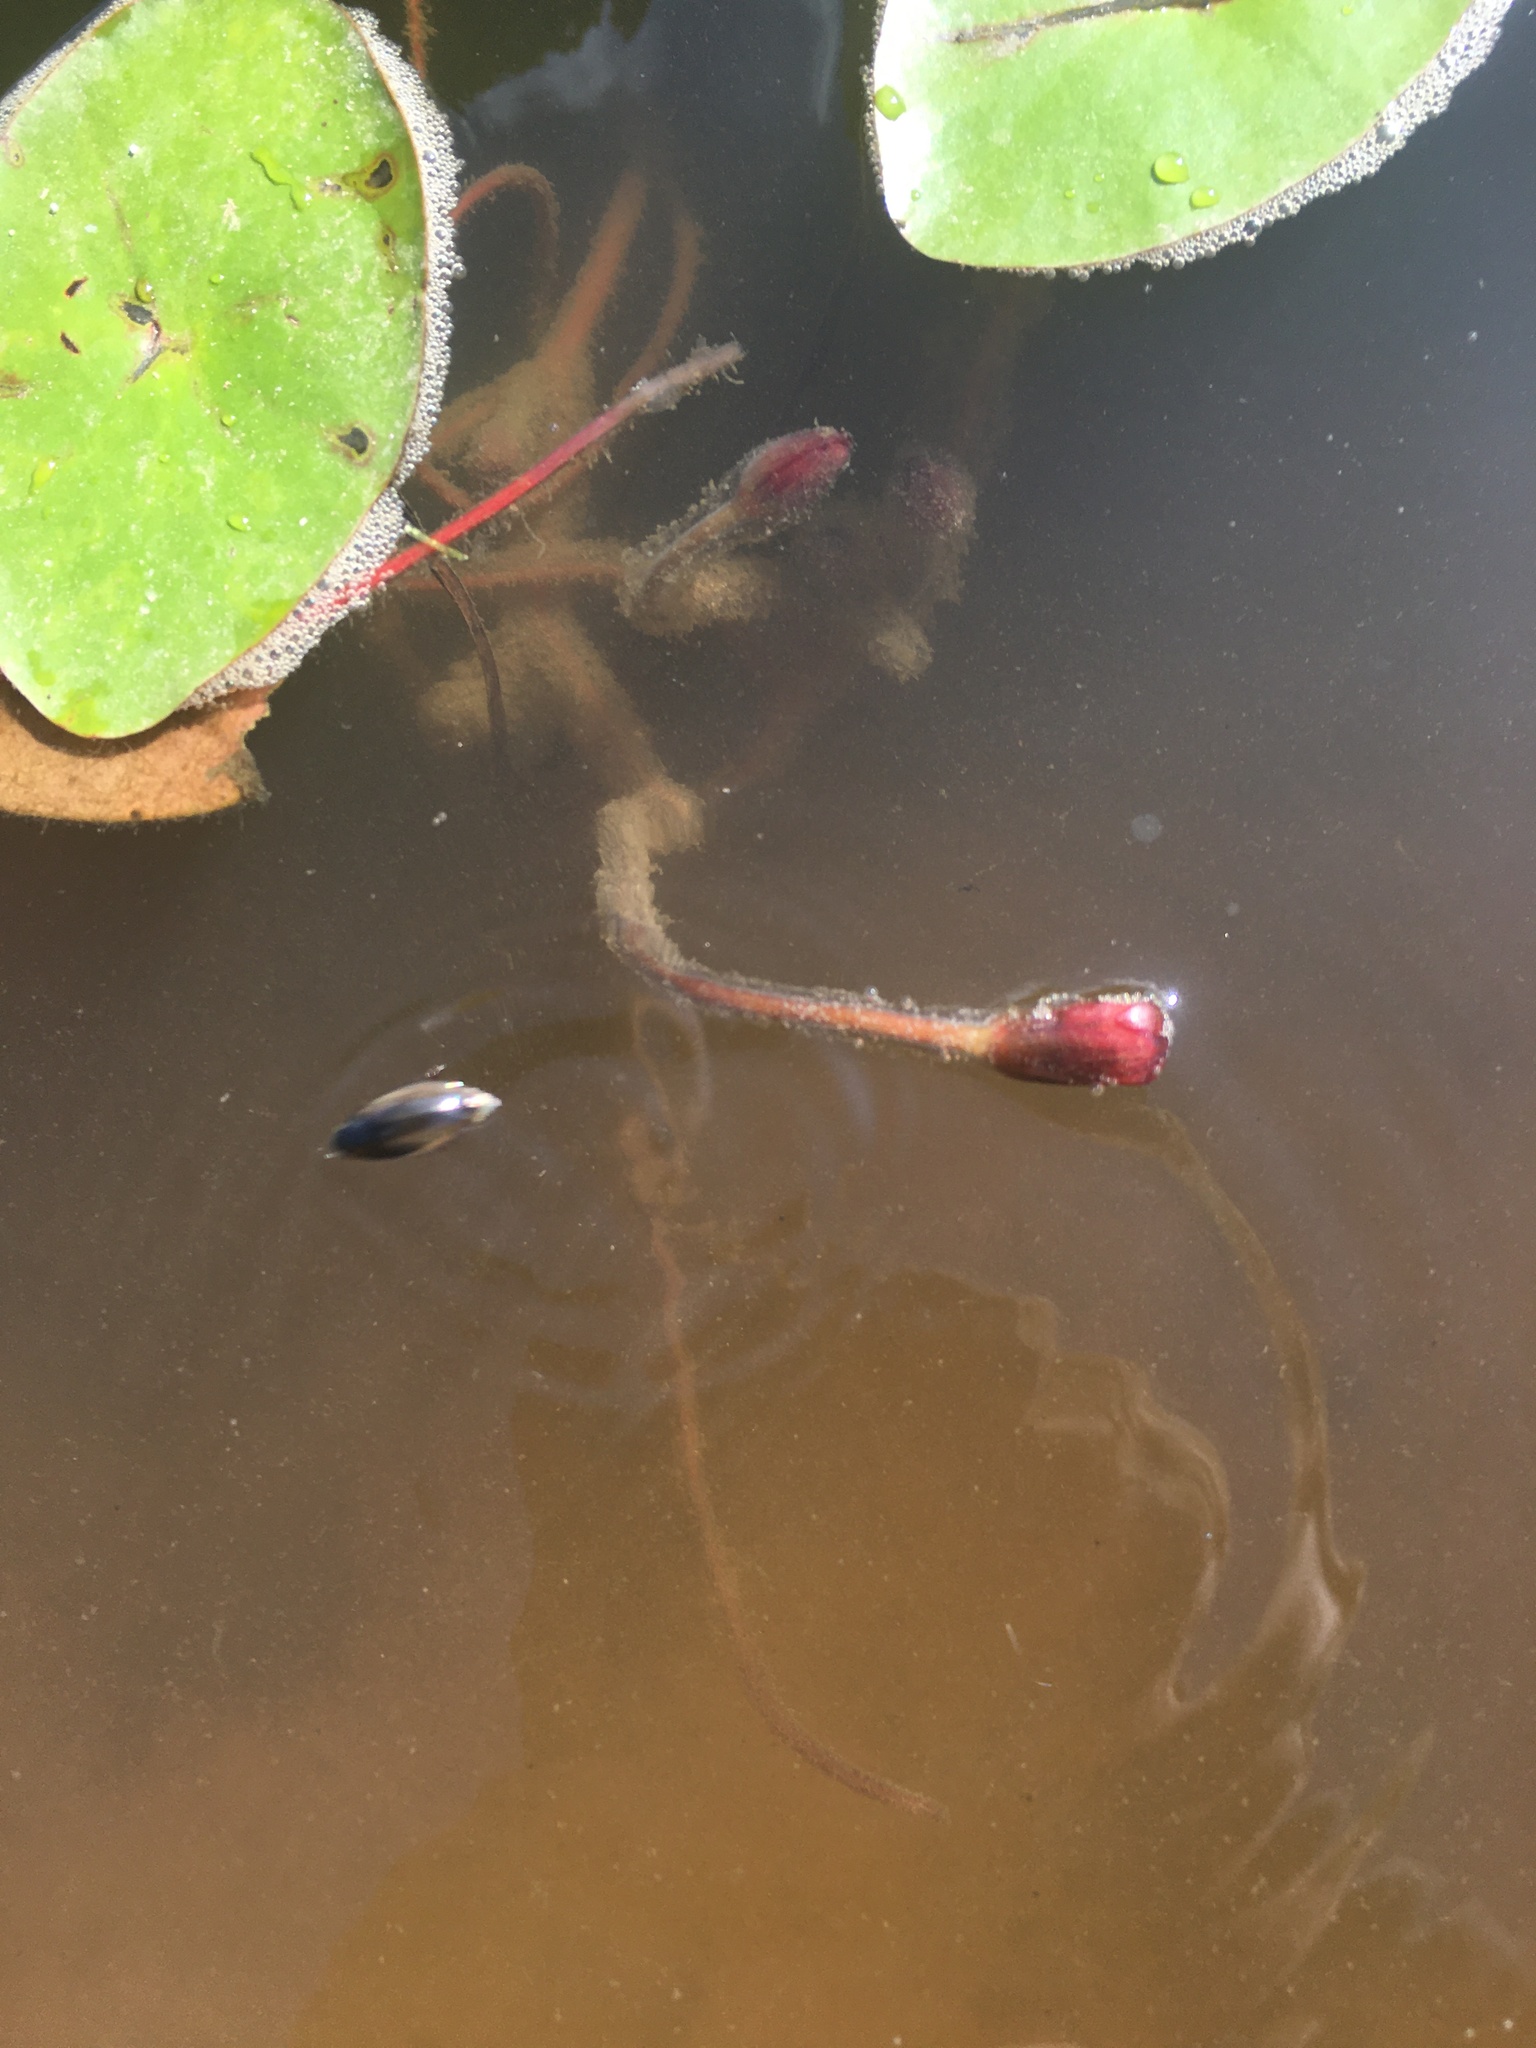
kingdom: Animalia
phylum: Arthropoda
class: Insecta
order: Coleoptera
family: Gyrinidae
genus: Dineutus
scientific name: Dineutus
